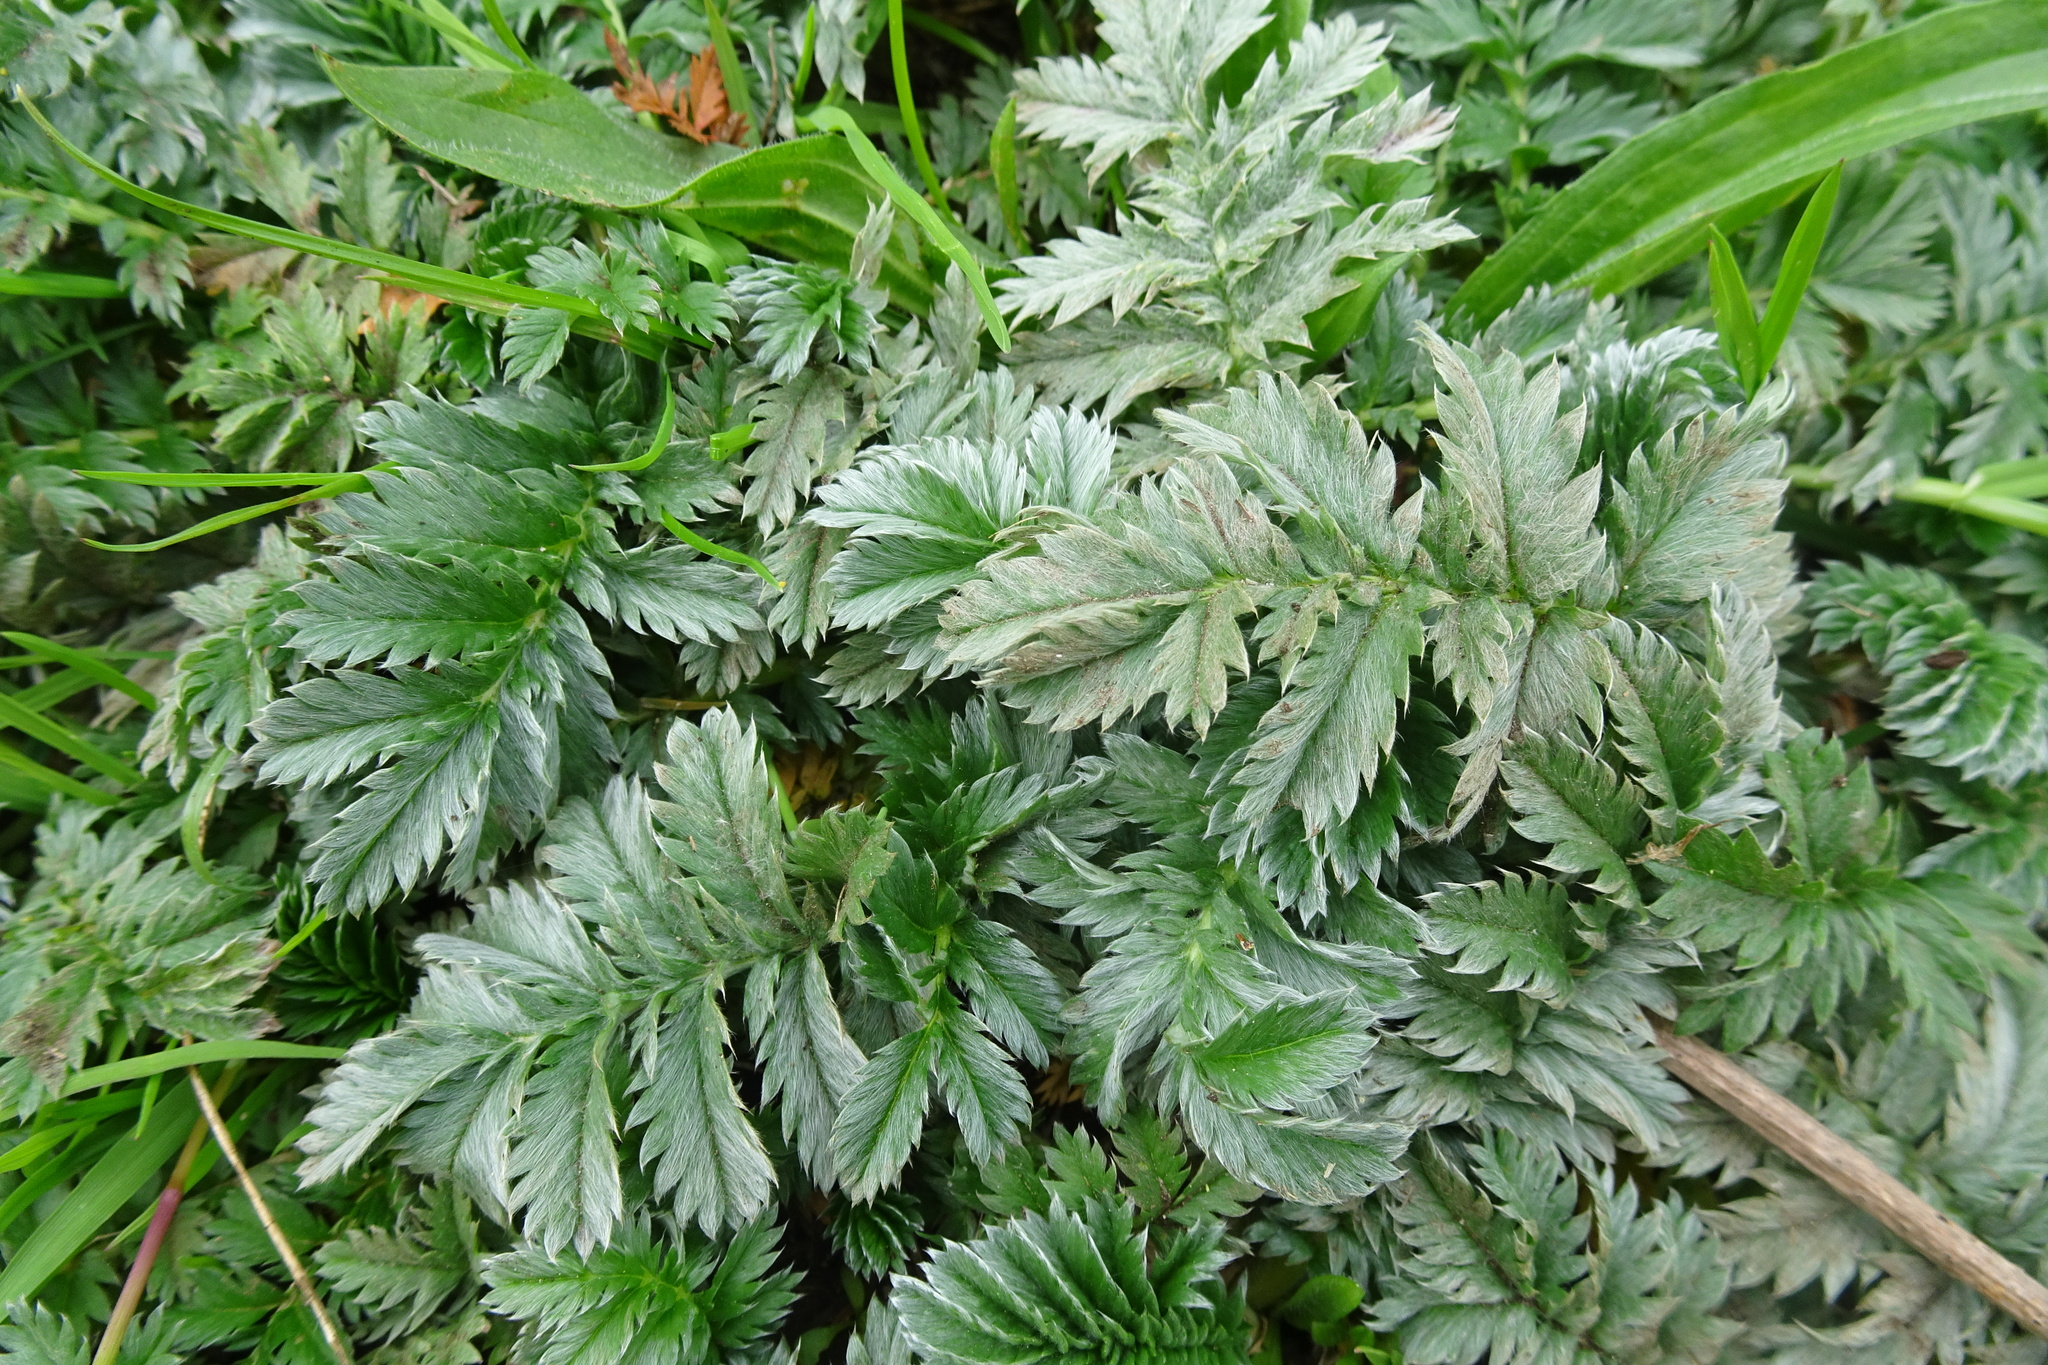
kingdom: Plantae
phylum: Tracheophyta
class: Magnoliopsida
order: Rosales
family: Rosaceae
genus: Argentina
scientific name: Argentina anserina
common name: Common silverweed
